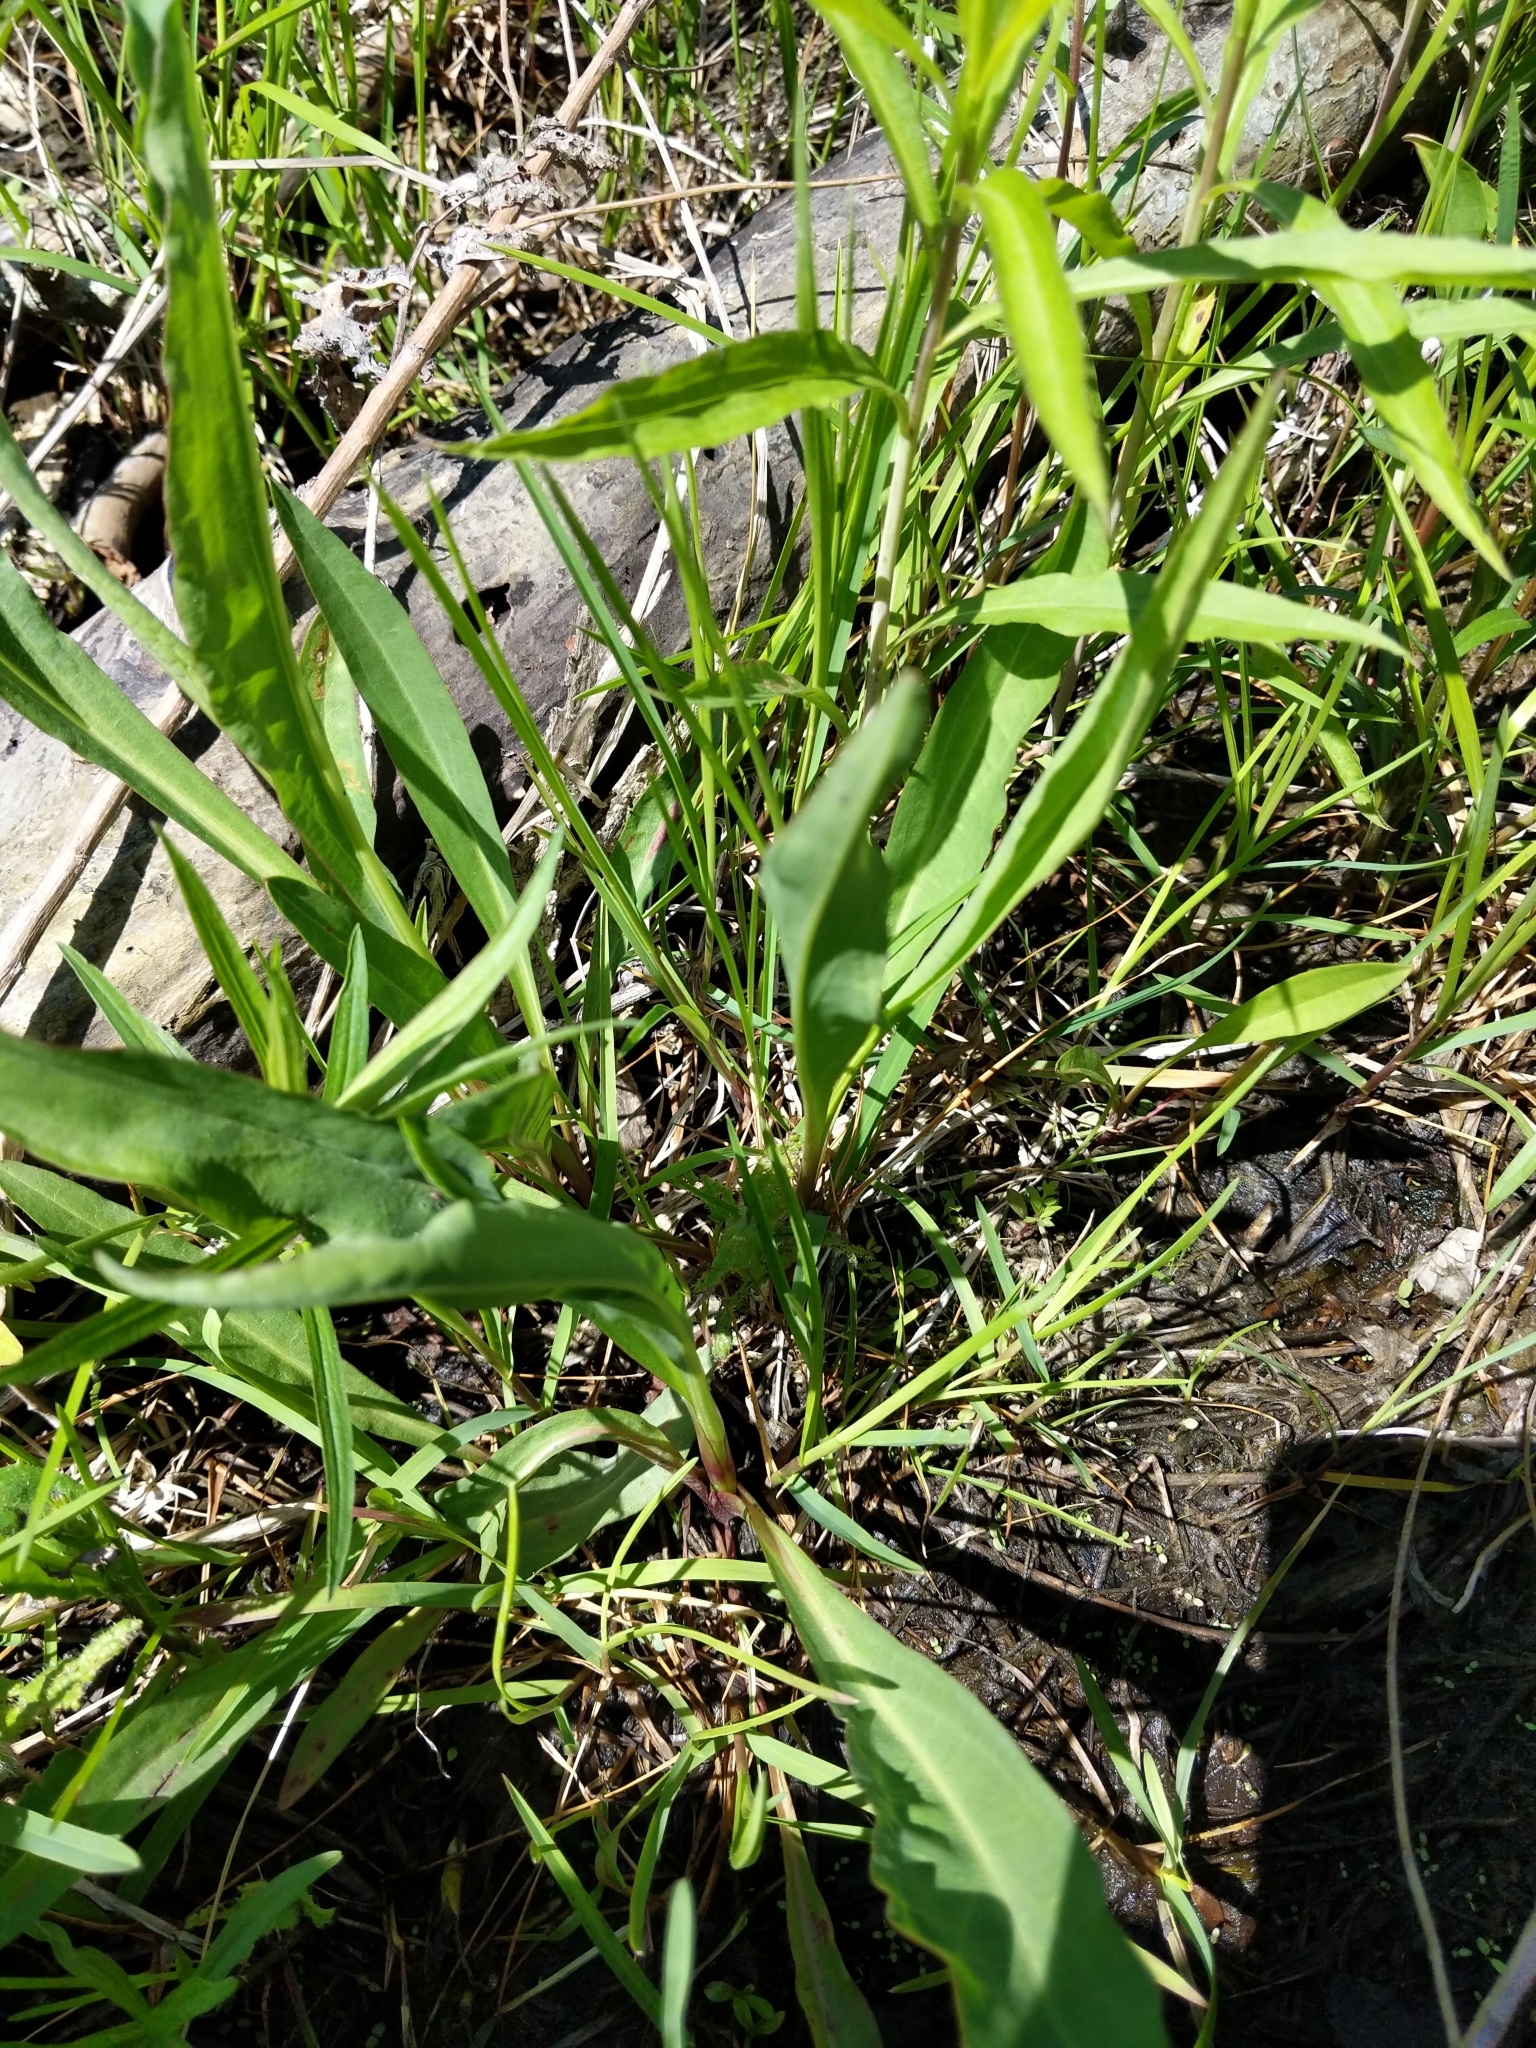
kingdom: Plantae
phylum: Tracheophyta
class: Magnoliopsida
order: Asterales
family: Asteraceae
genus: Solidago
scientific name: Solidago sempervirens
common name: Salt-marsh goldenrod
